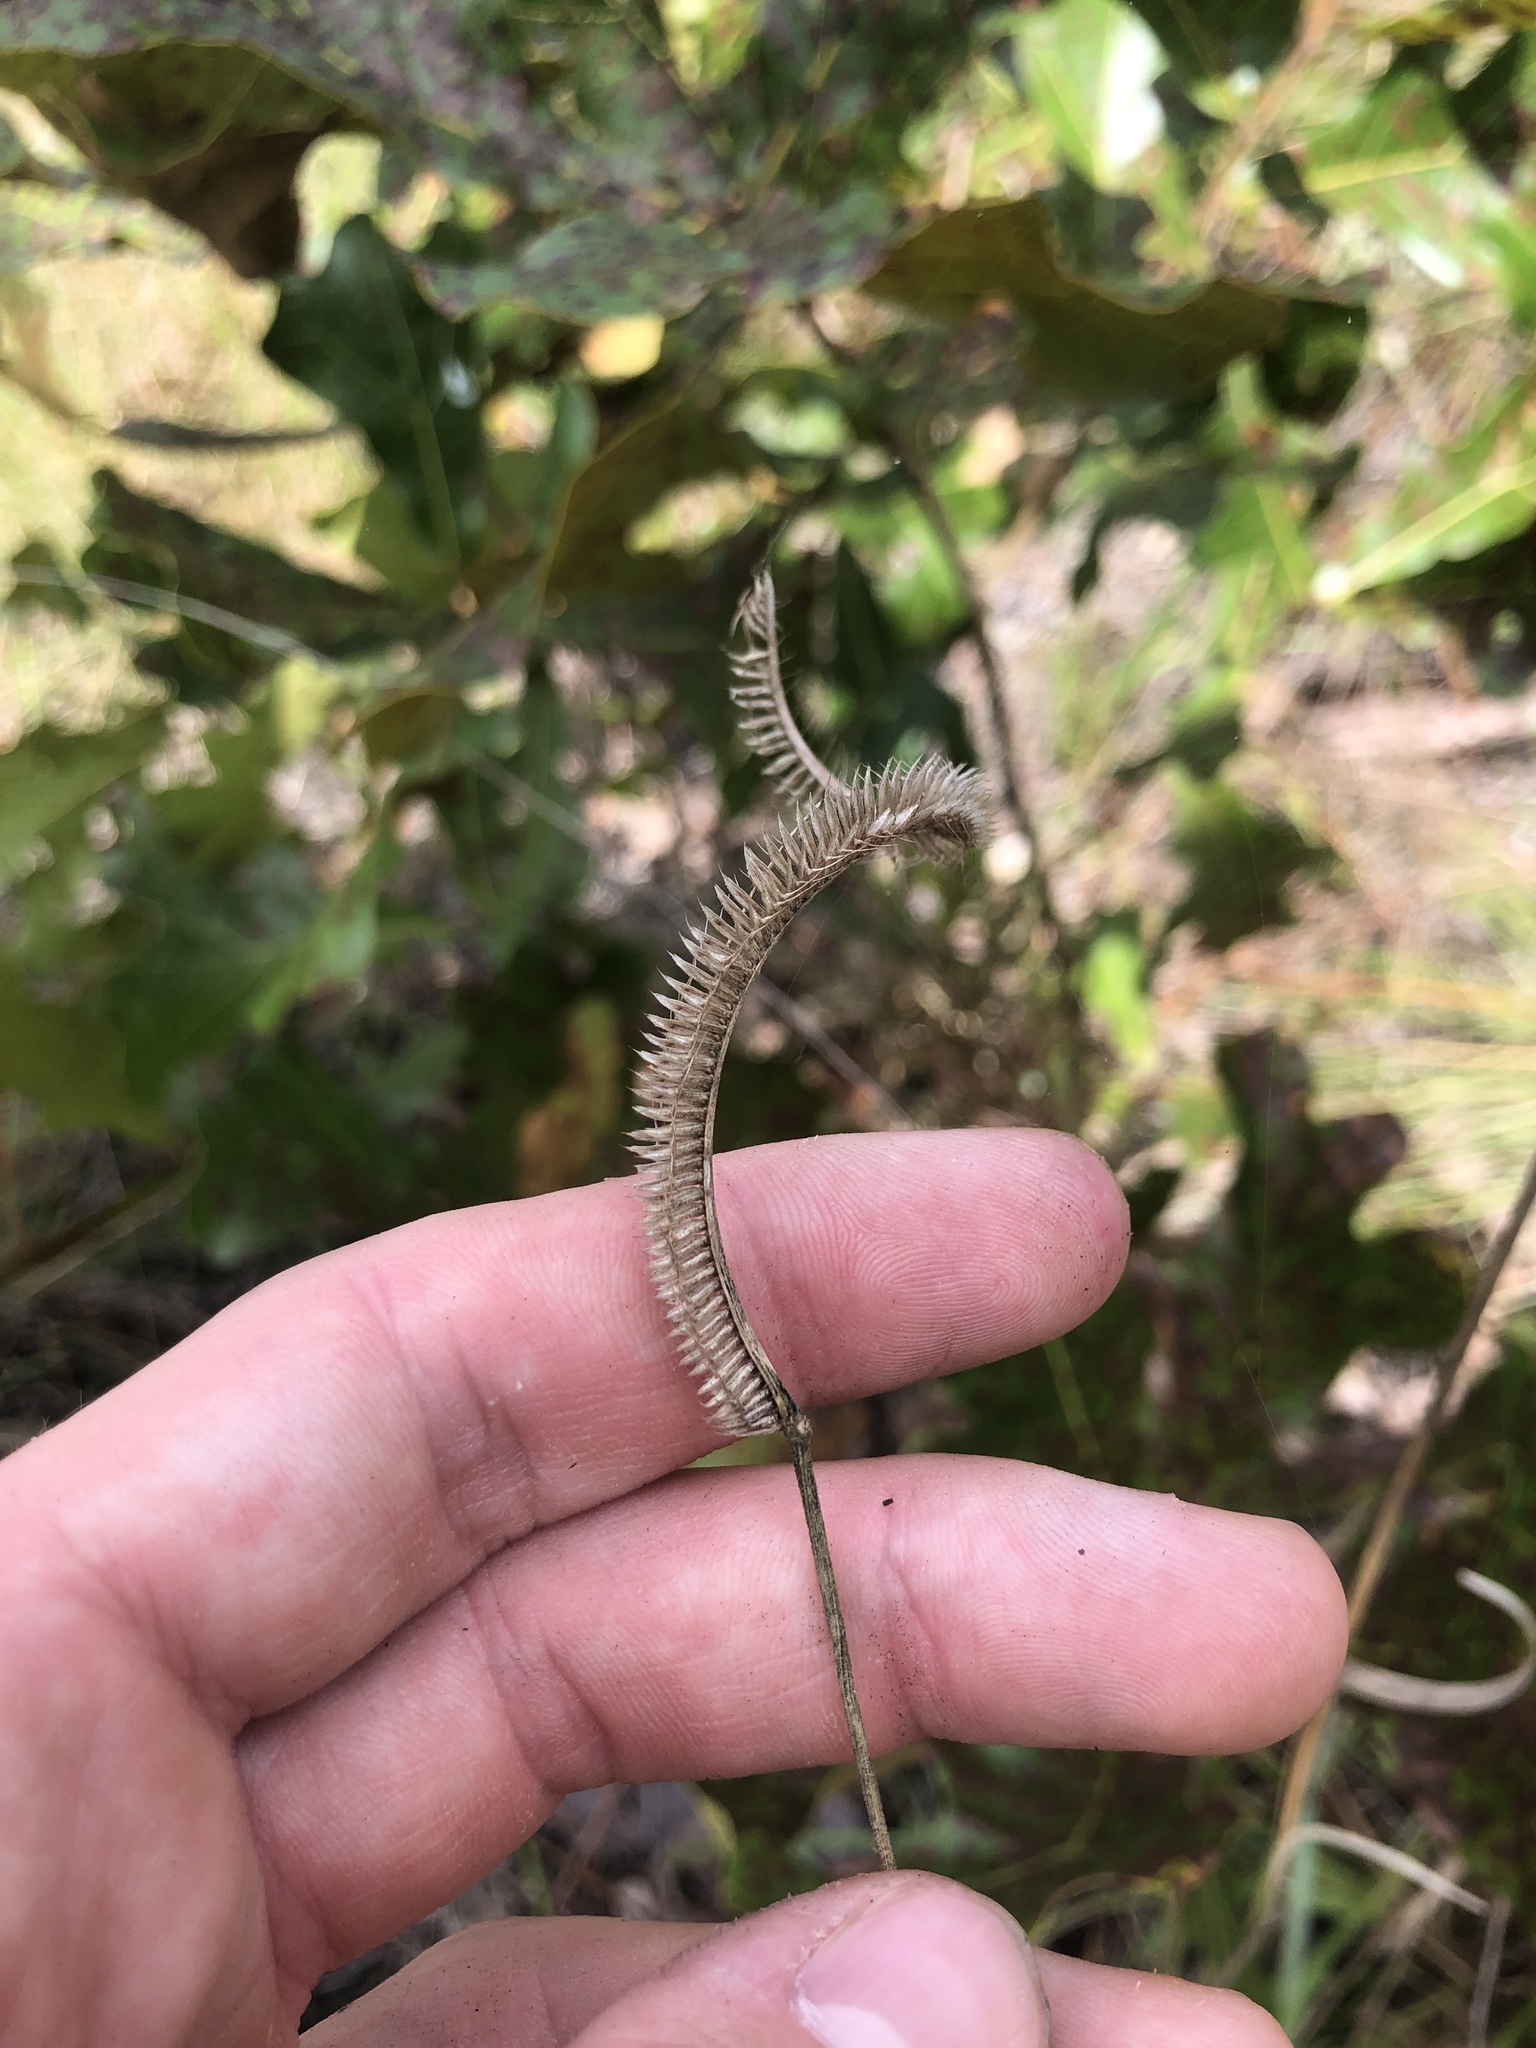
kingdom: Plantae
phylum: Tracheophyta
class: Liliopsida
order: Poales
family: Poaceae
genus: Ctenium
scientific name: Ctenium aromaticum
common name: Toothache grass
